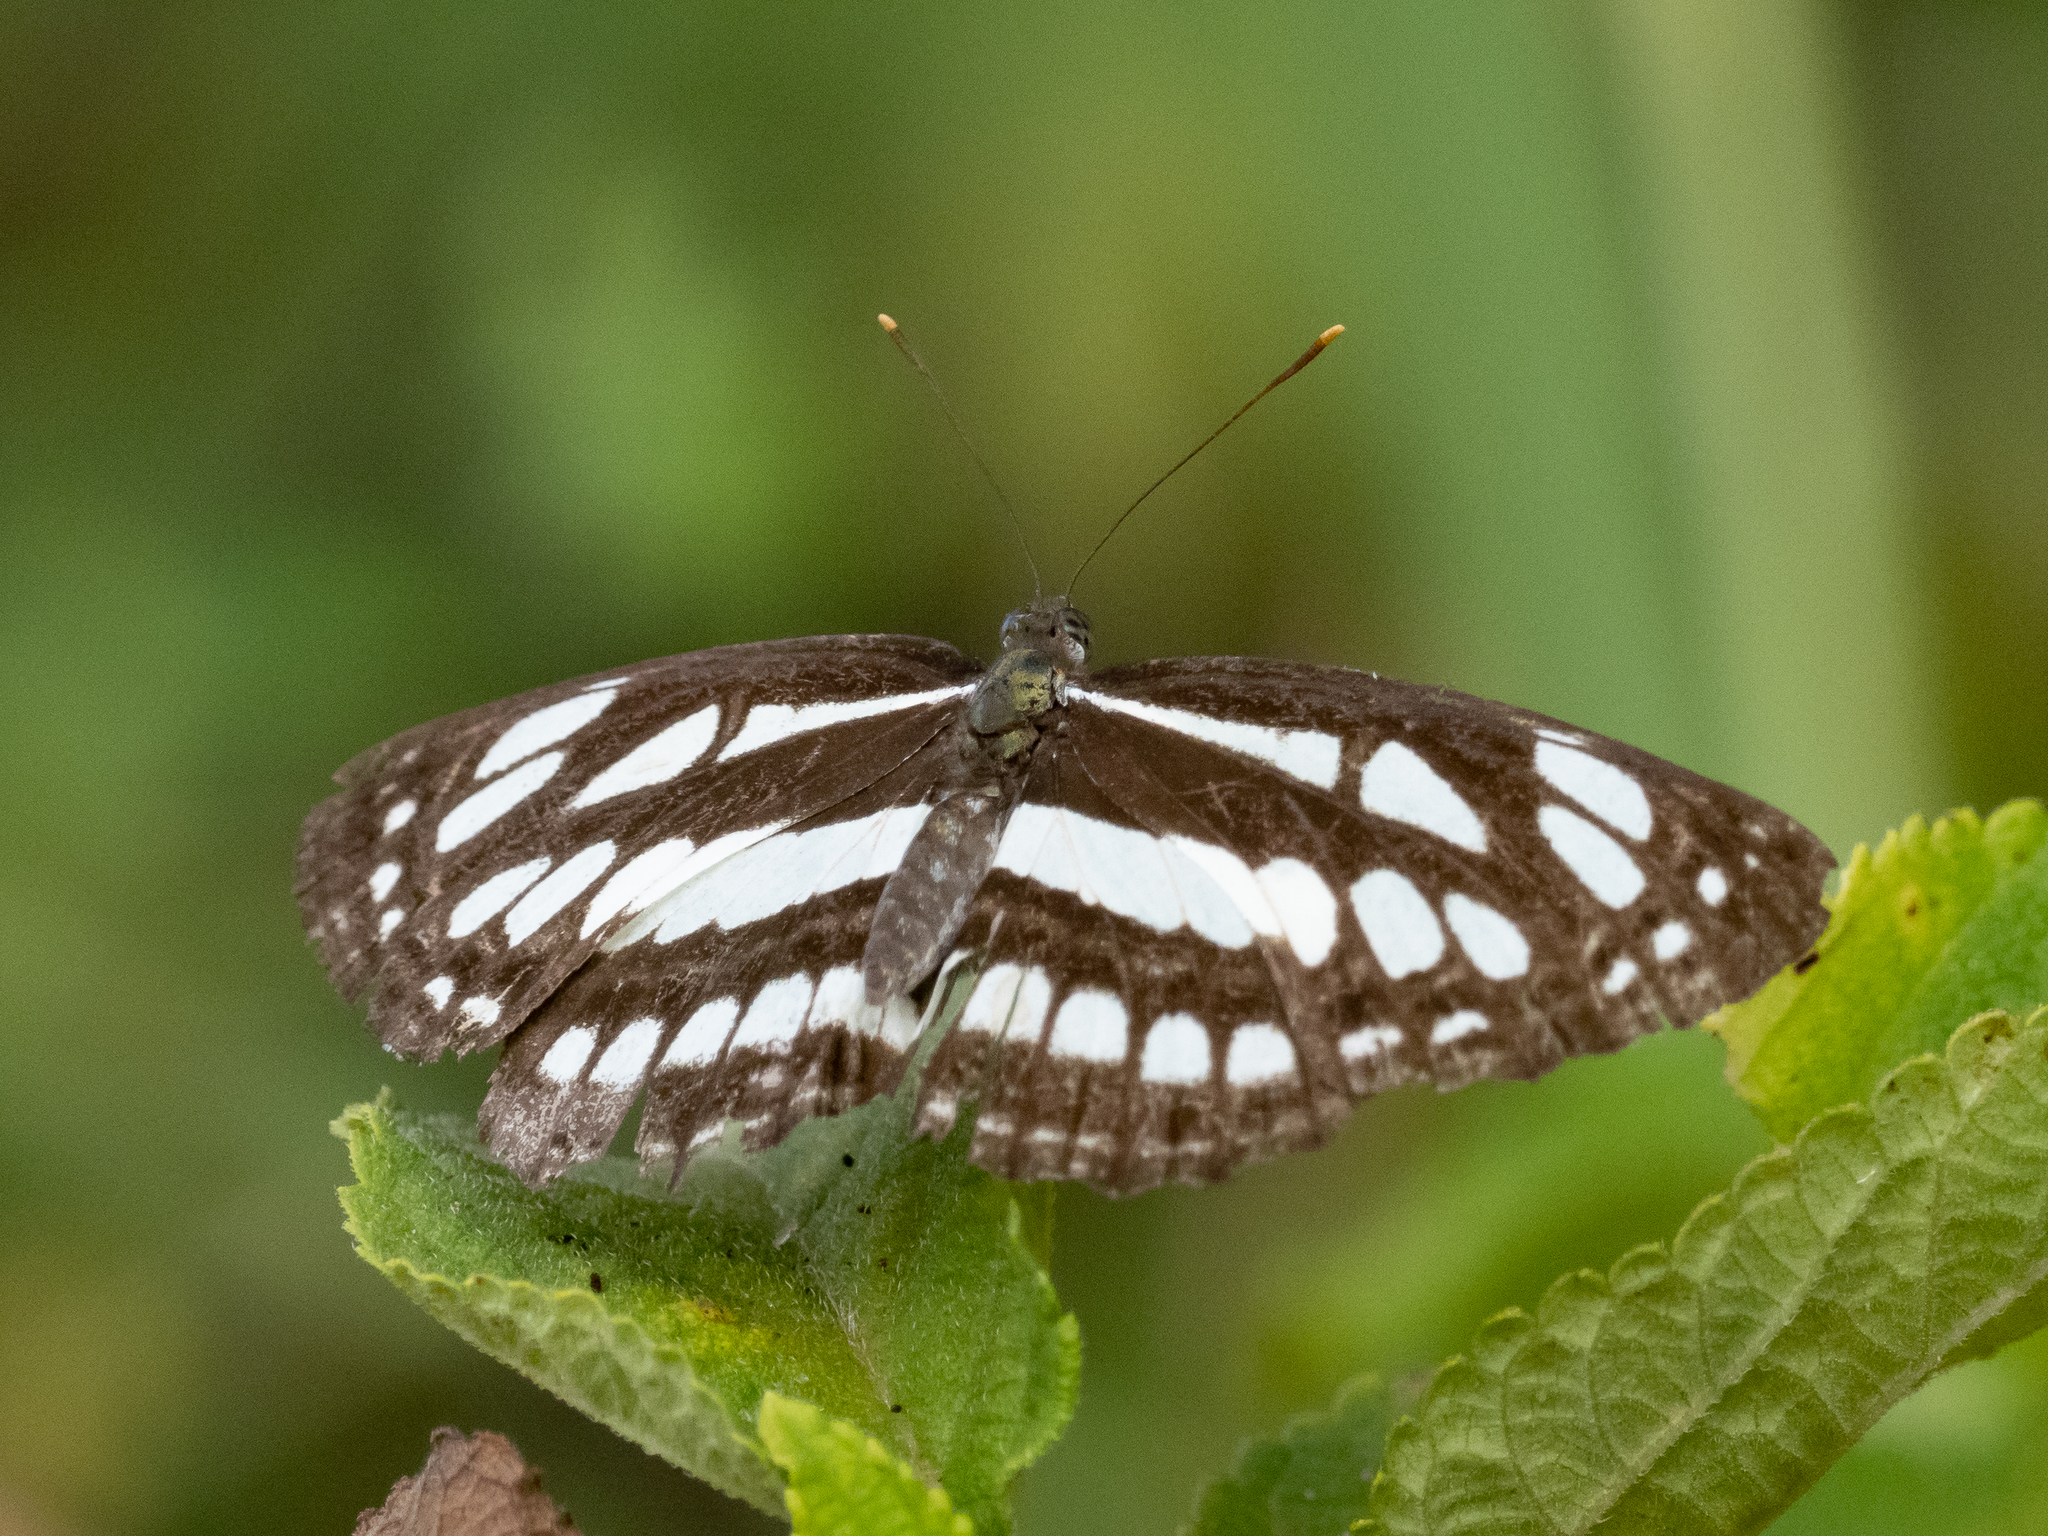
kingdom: Animalia
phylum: Arthropoda
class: Insecta
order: Lepidoptera
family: Nymphalidae
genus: Neptis
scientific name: Neptis hylas
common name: Common sailer
